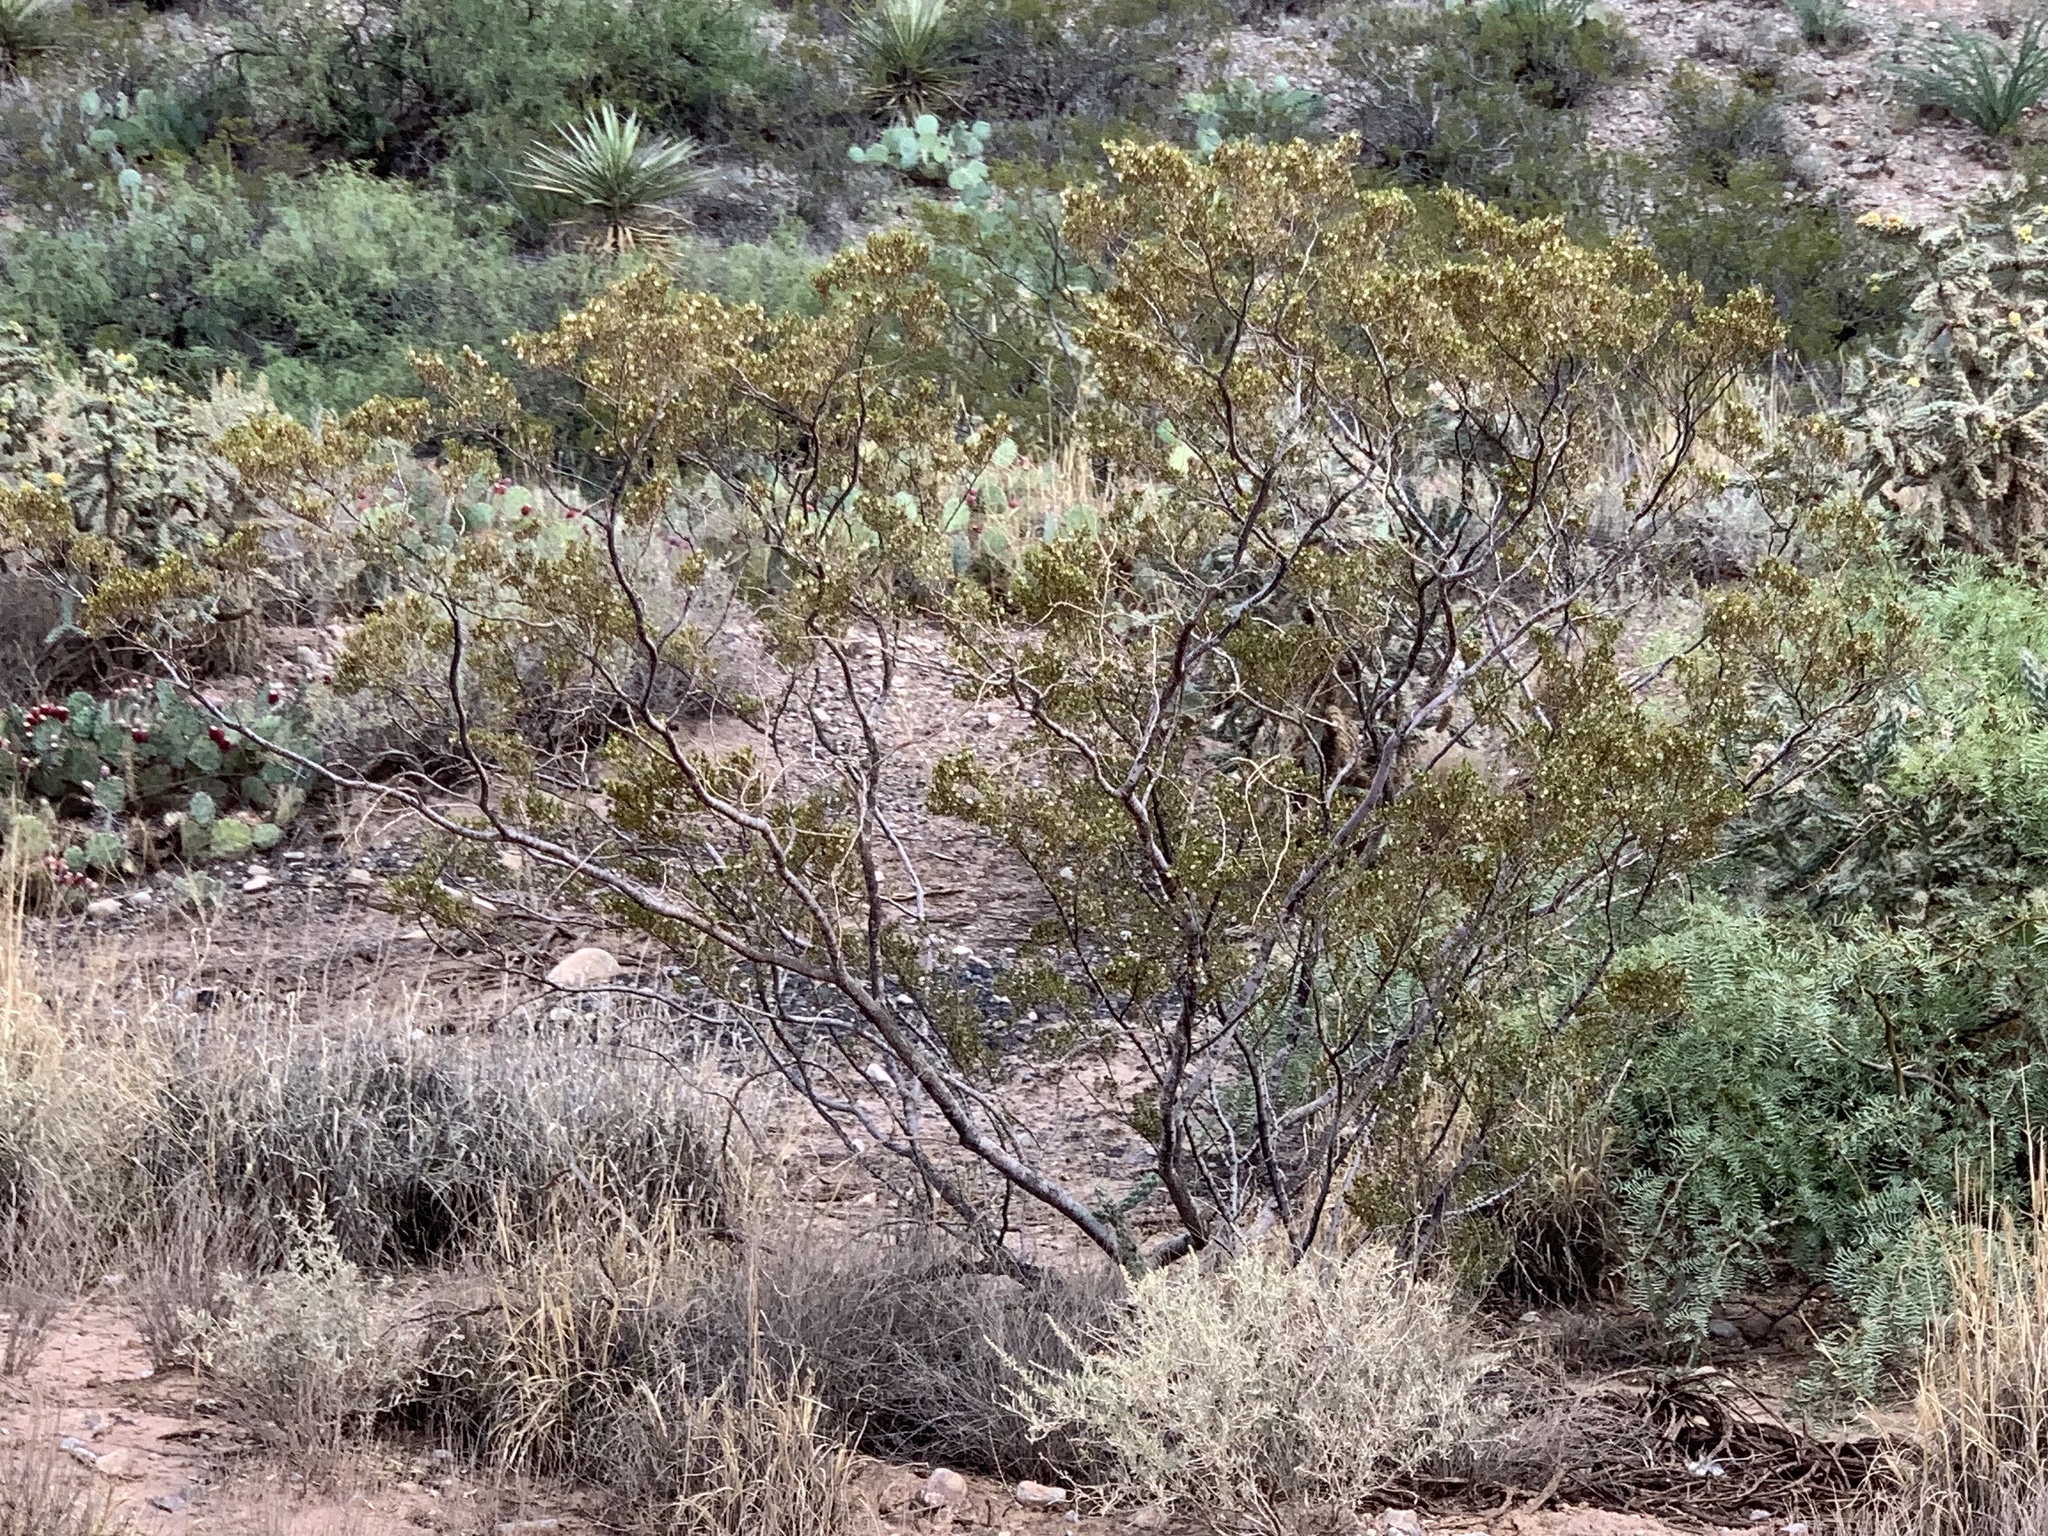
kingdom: Plantae
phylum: Tracheophyta
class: Magnoliopsida
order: Zygophyllales
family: Zygophyllaceae
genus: Larrea
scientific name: Larrea tridentata
